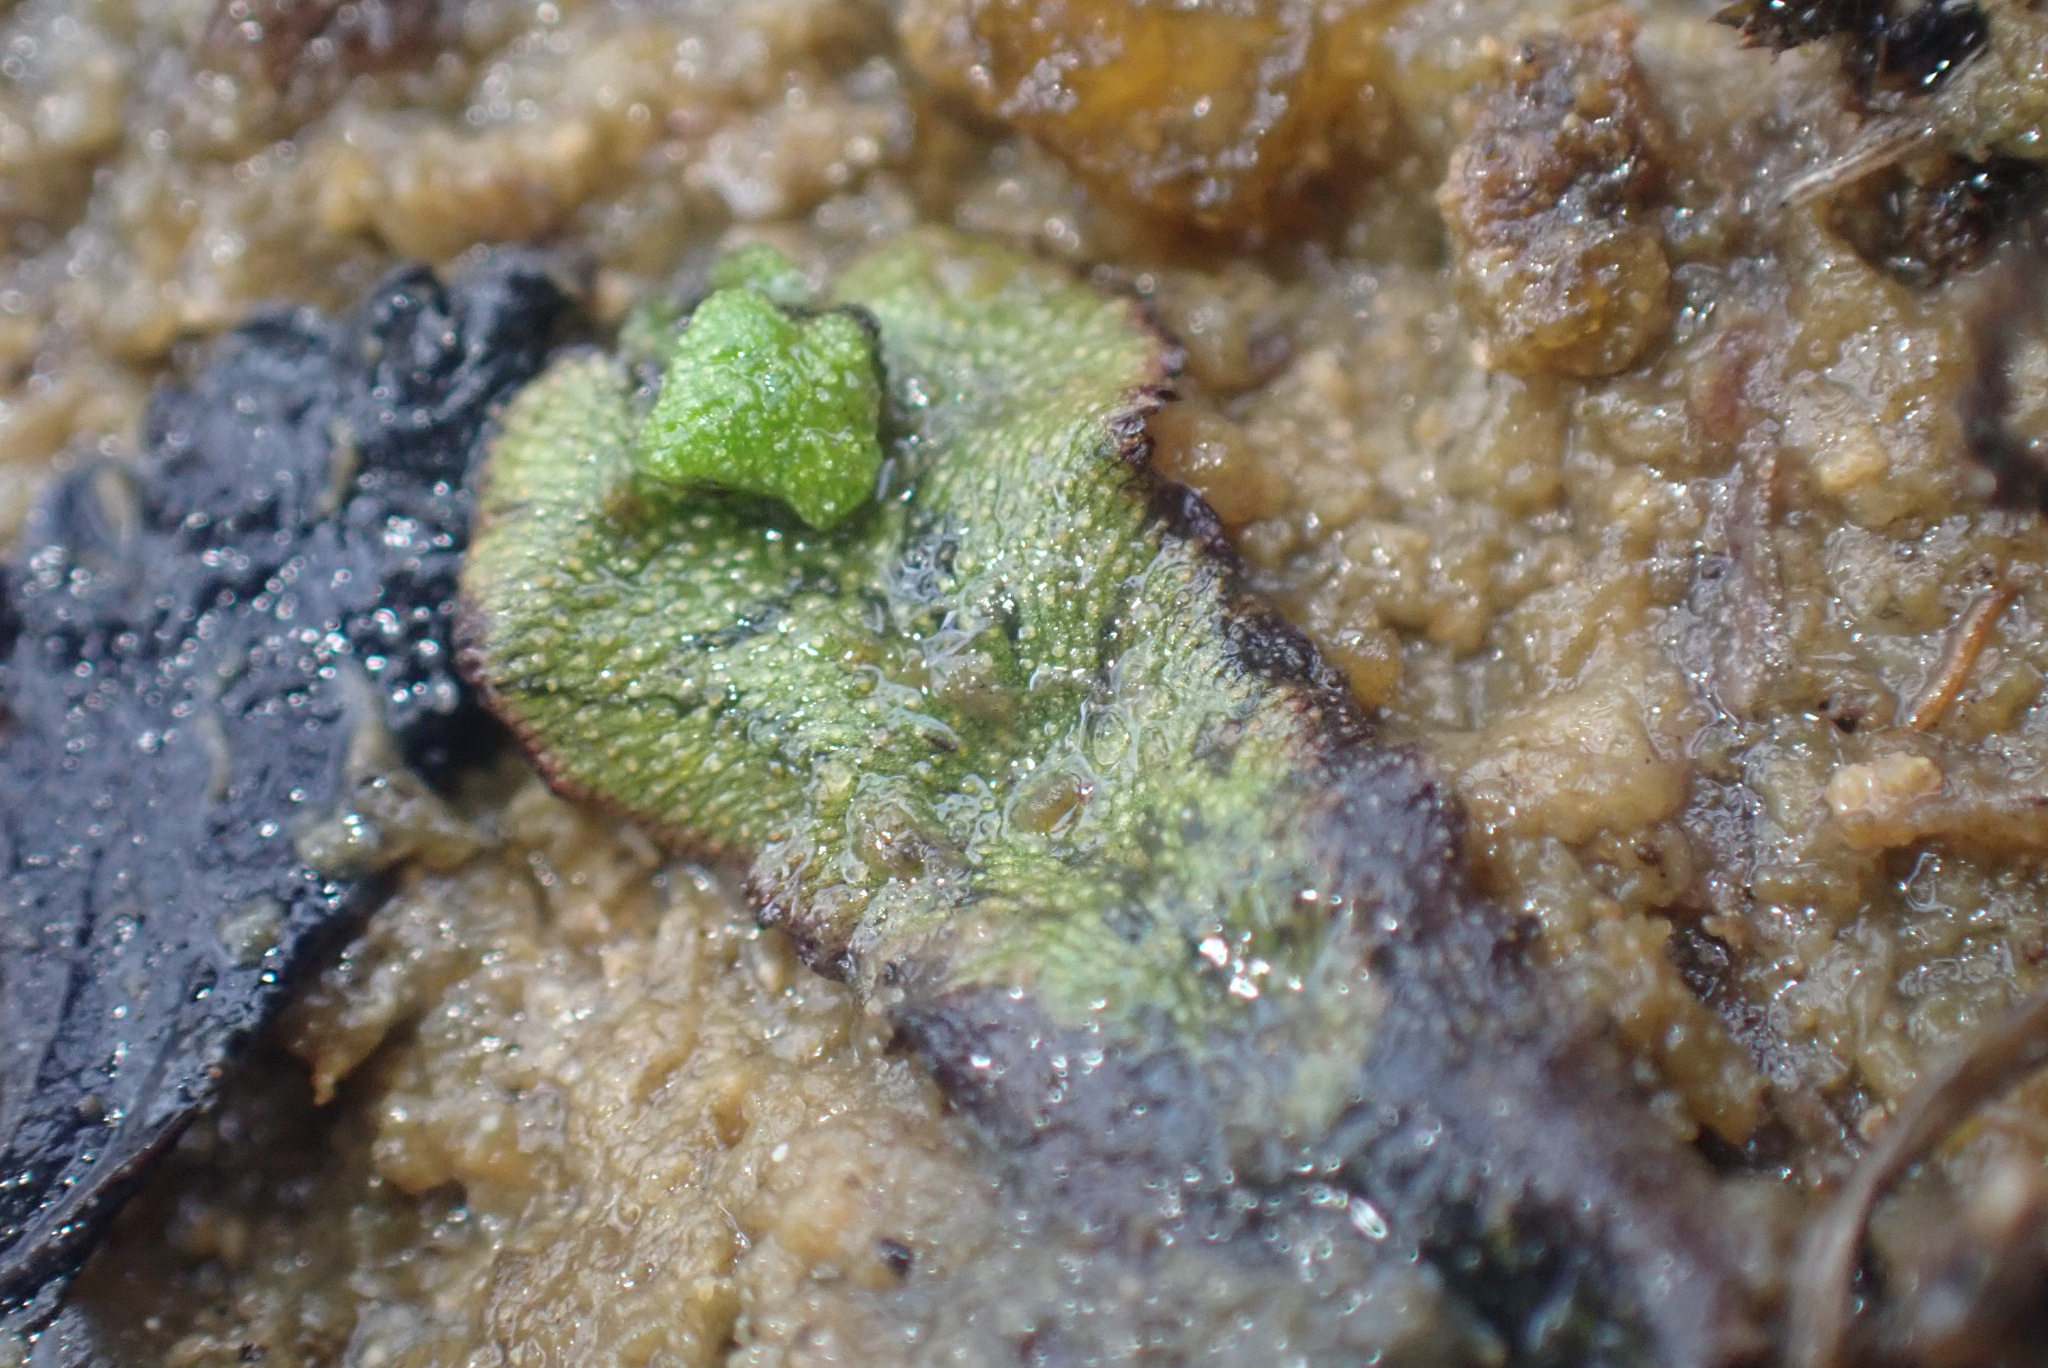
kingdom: Plantae
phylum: Marchantiophyta
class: Marchantiopsida
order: Marchantiales
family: Marchantiaceae
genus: Marchantia
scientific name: Marchantia quadrata
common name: Narrow mushroom-headed liverwort
